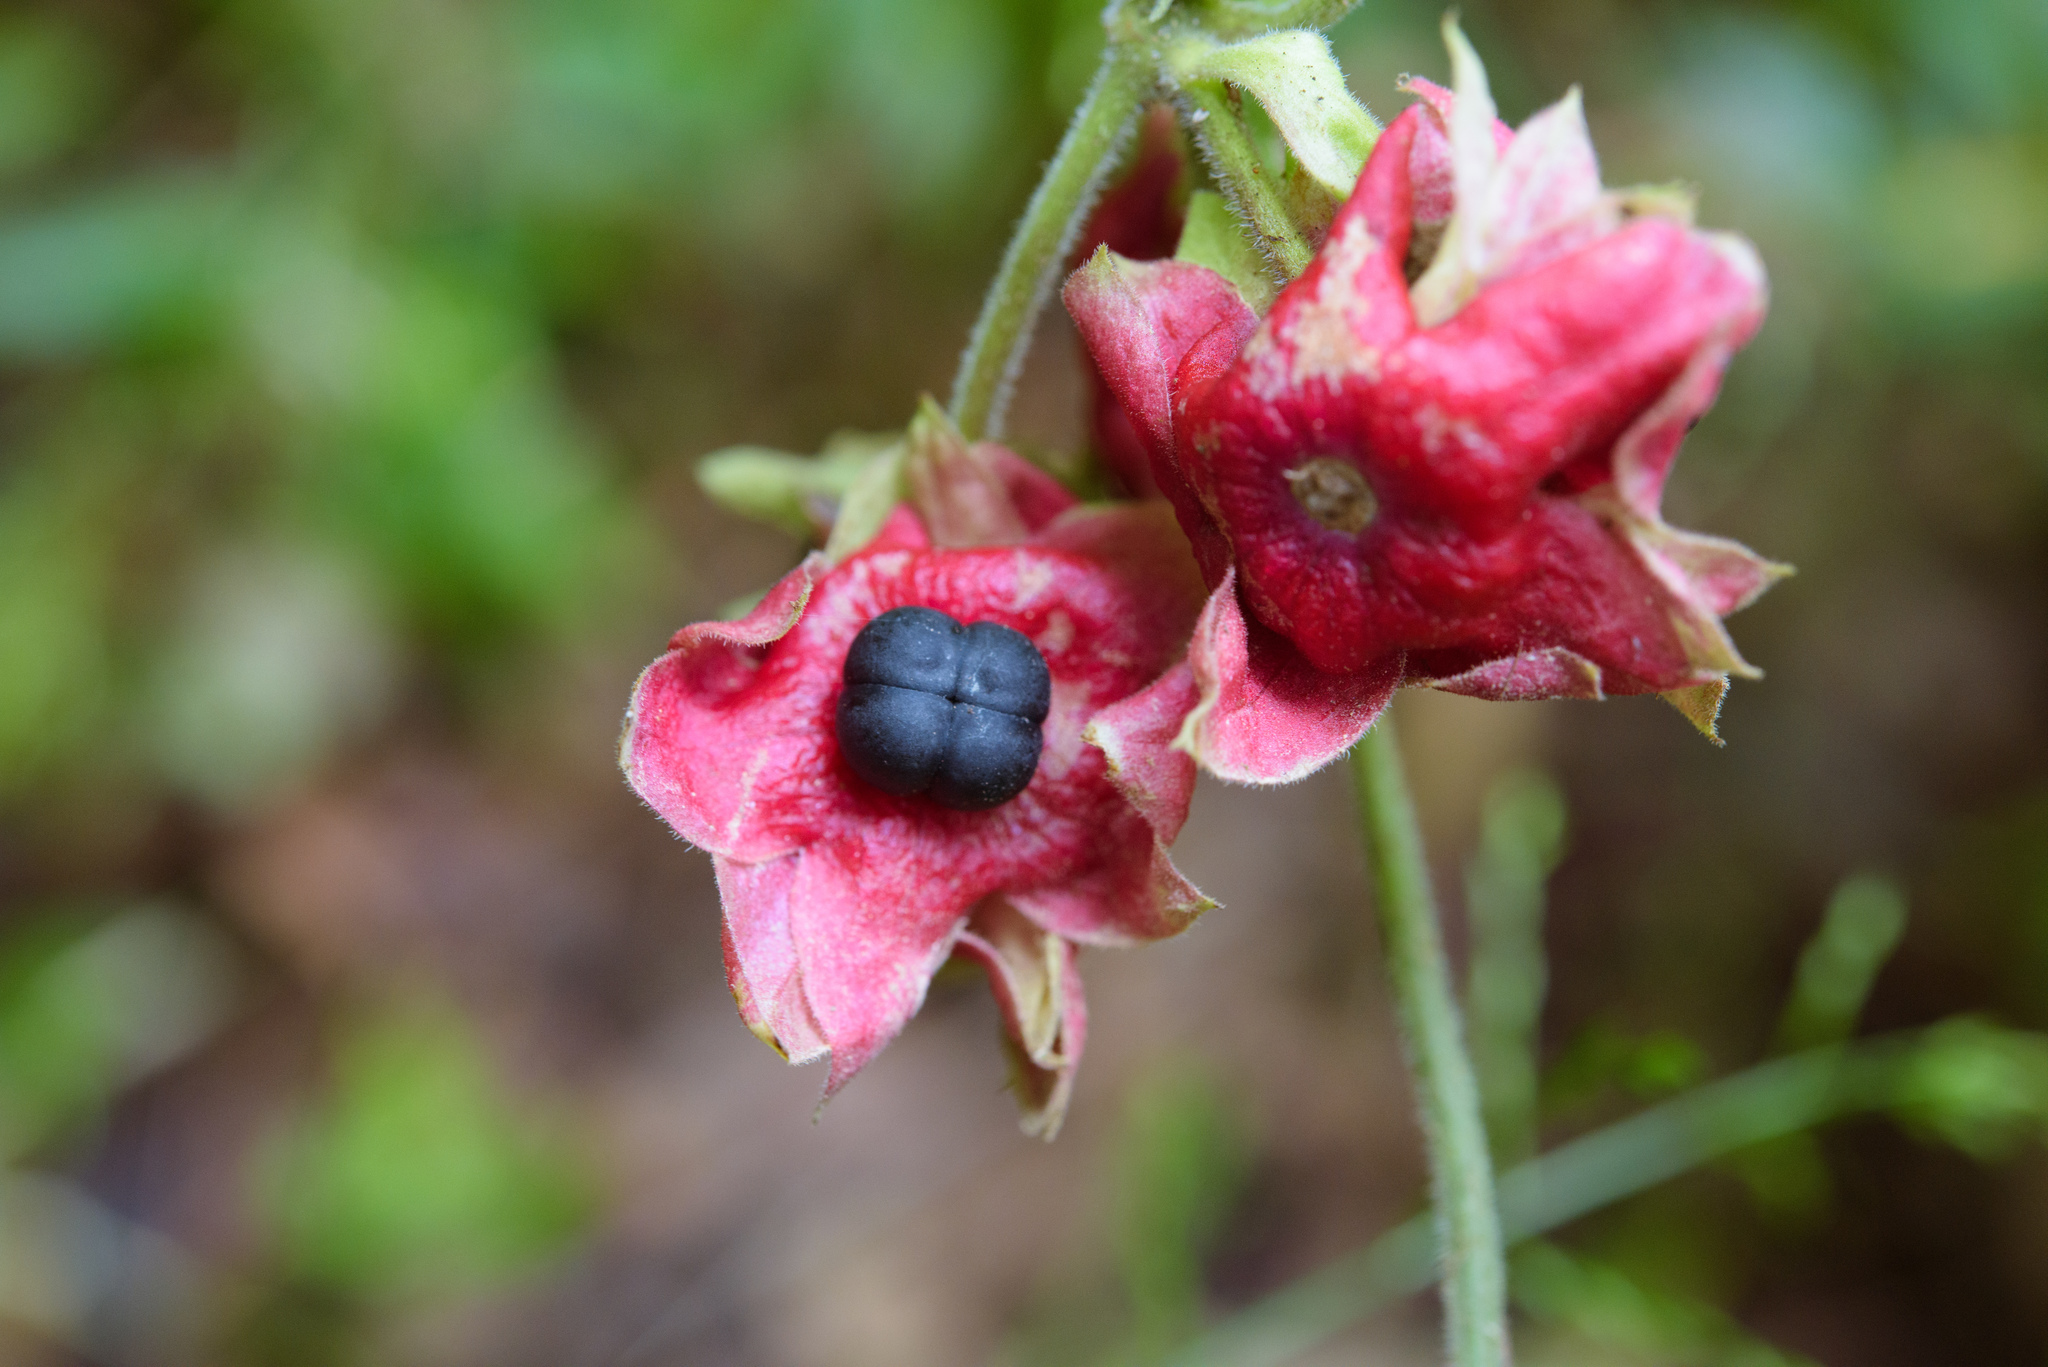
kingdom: Plantae
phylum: Tracheophyta
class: Magnoliopsida
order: Lamiales
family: Lamiaceae
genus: Clerodendrum
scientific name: Clerodendrum canescens
